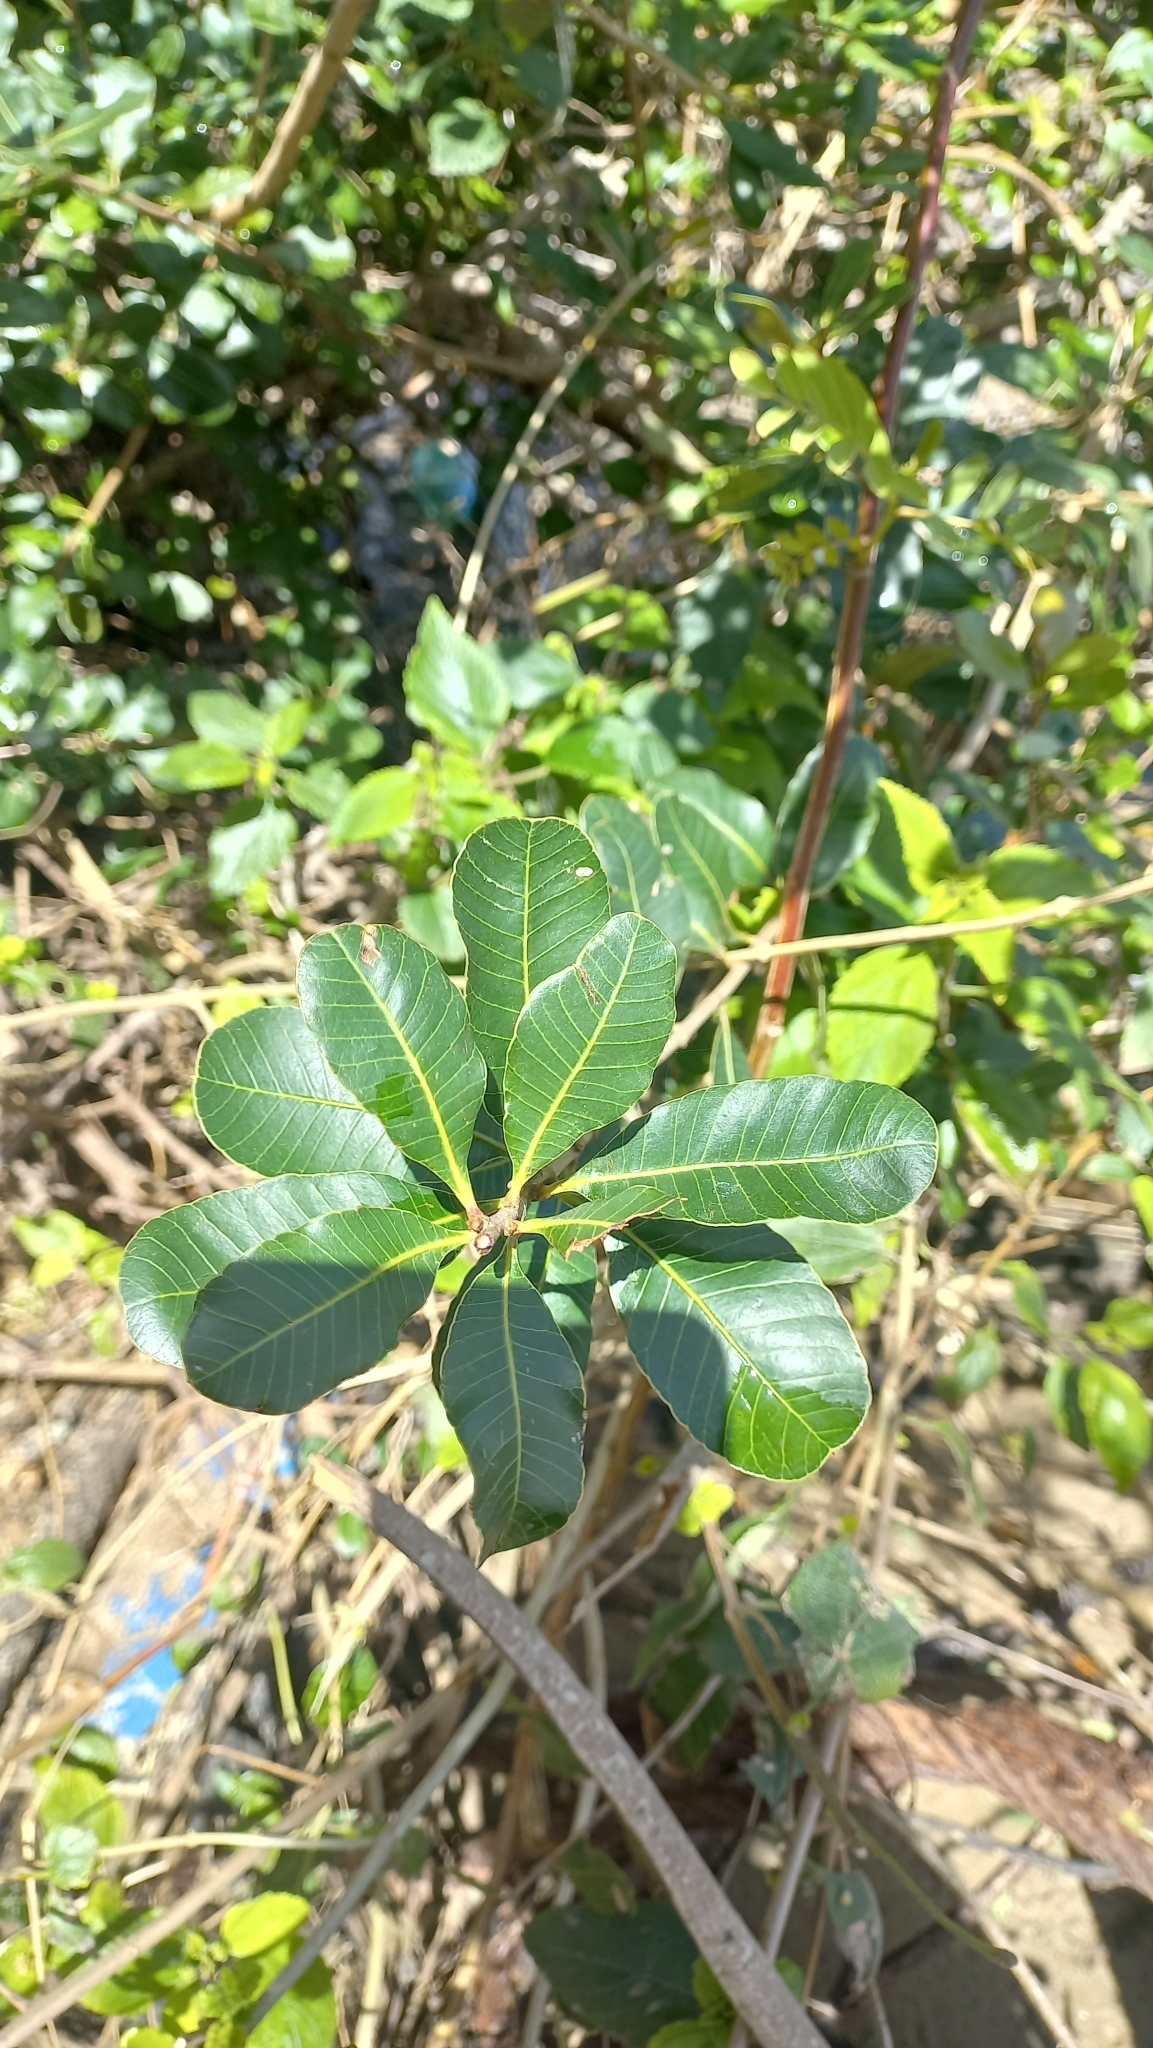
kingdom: Plantae
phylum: Tracheophyta
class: Magnoliopsida
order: Sapindales
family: Anacardiaceae
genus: Lithraea
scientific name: Lithraea brasiliensis
